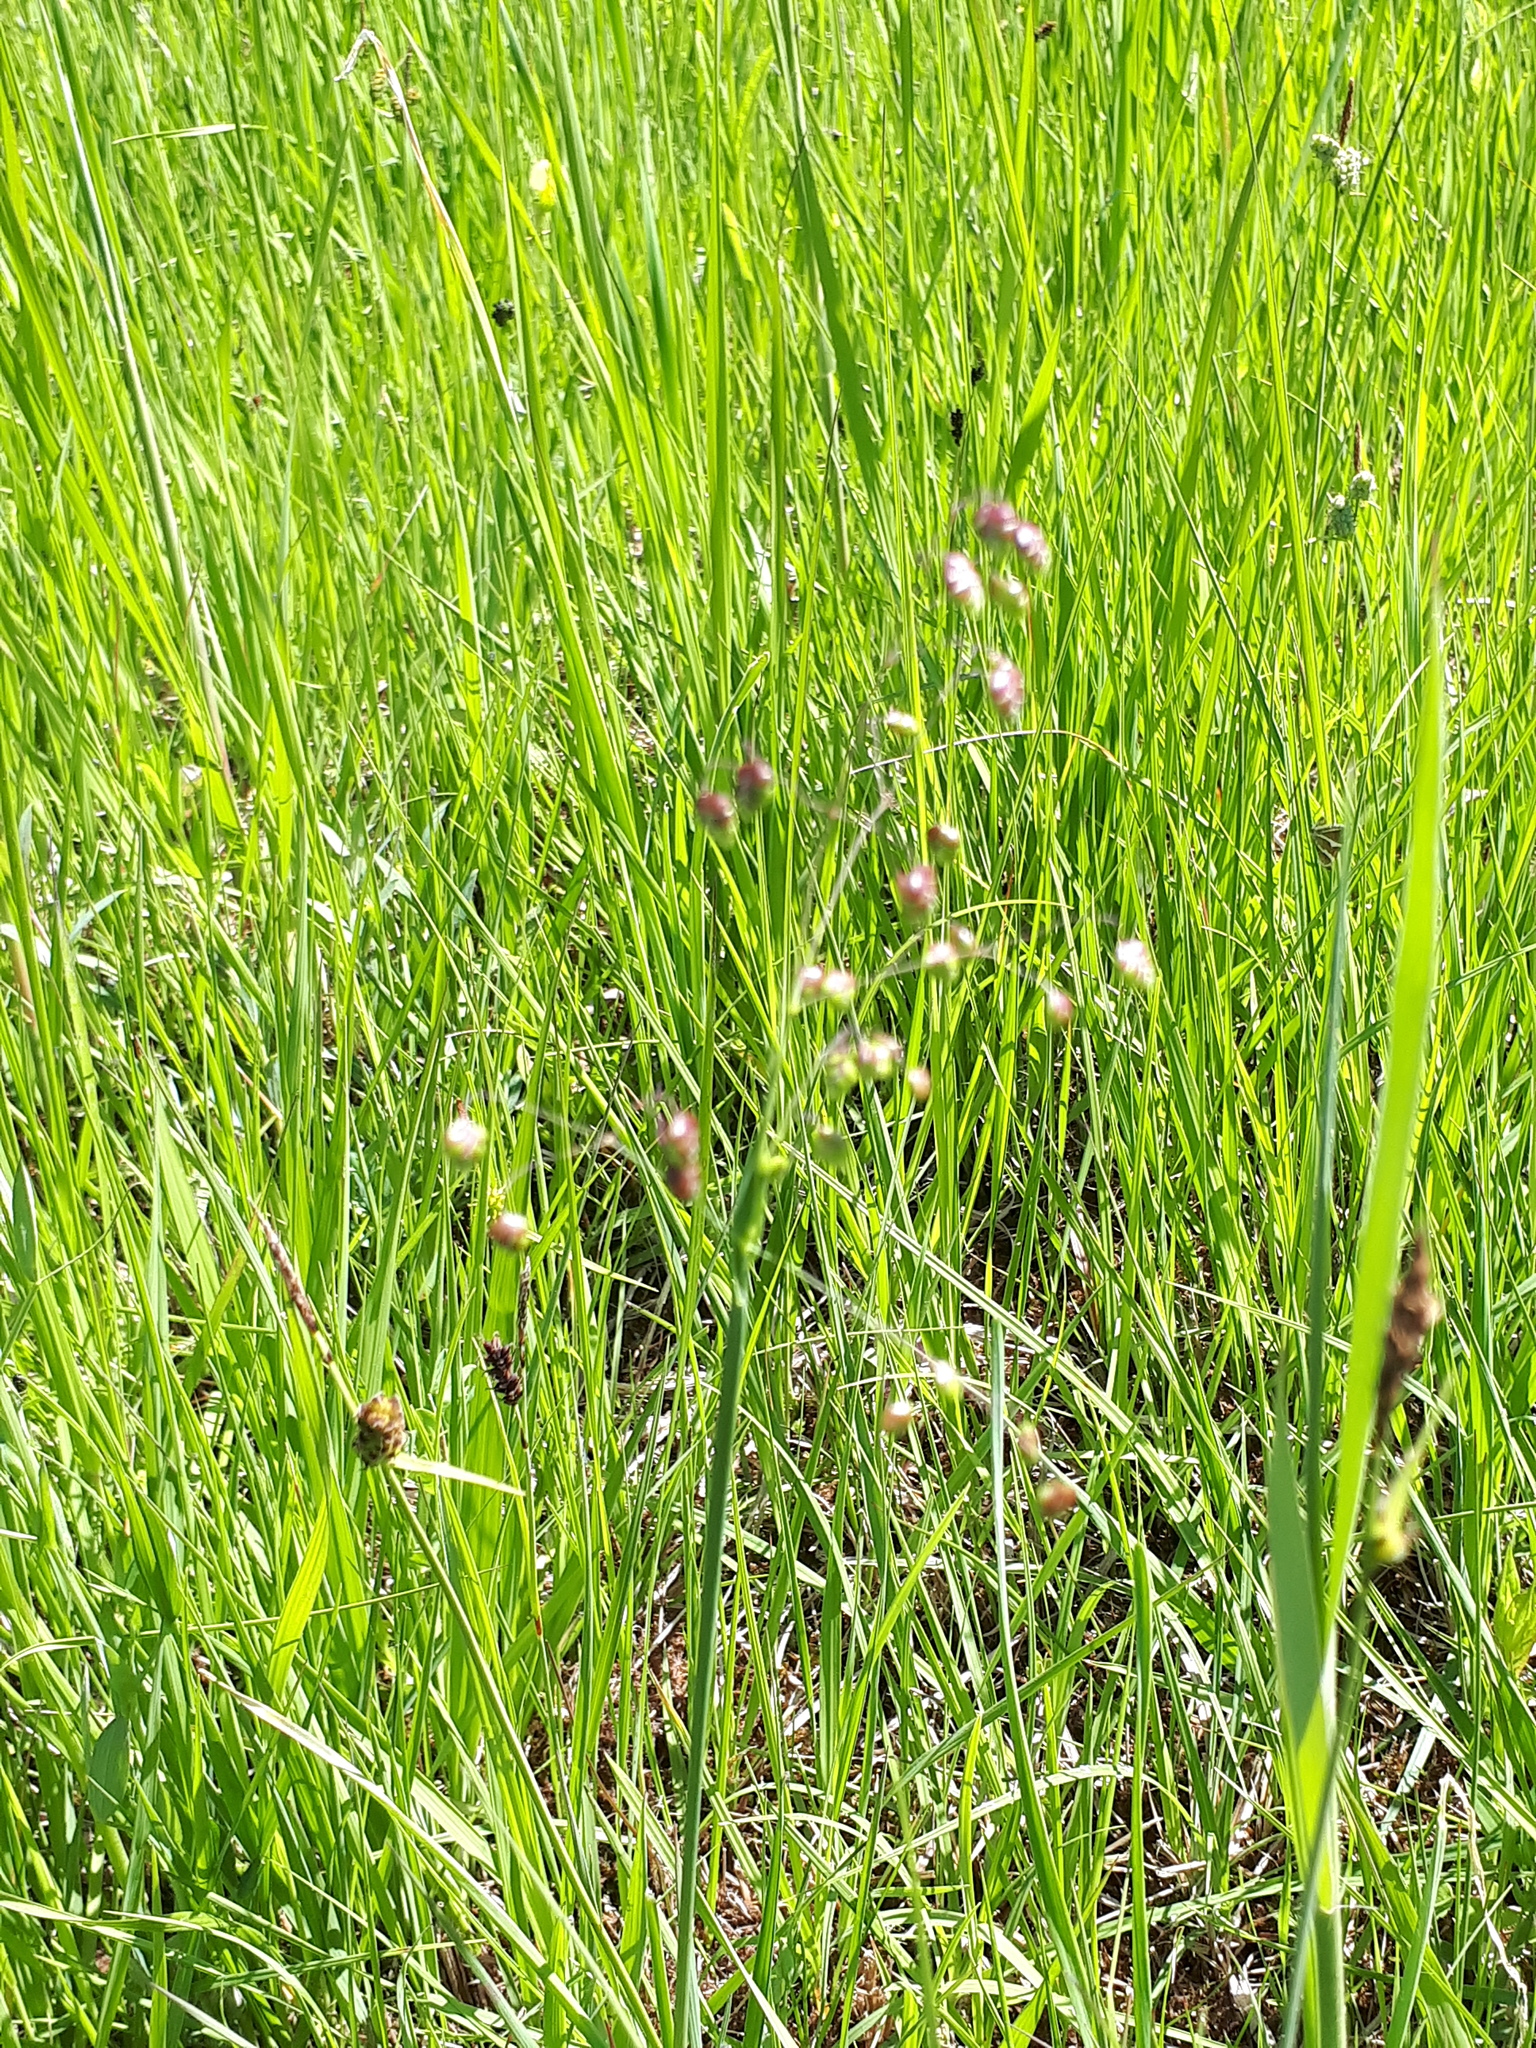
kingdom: Plantae
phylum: Tracheophyta
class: Liliopsida
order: Poales
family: Poaceae
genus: Briza
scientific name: Briza media
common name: Quaking grass
